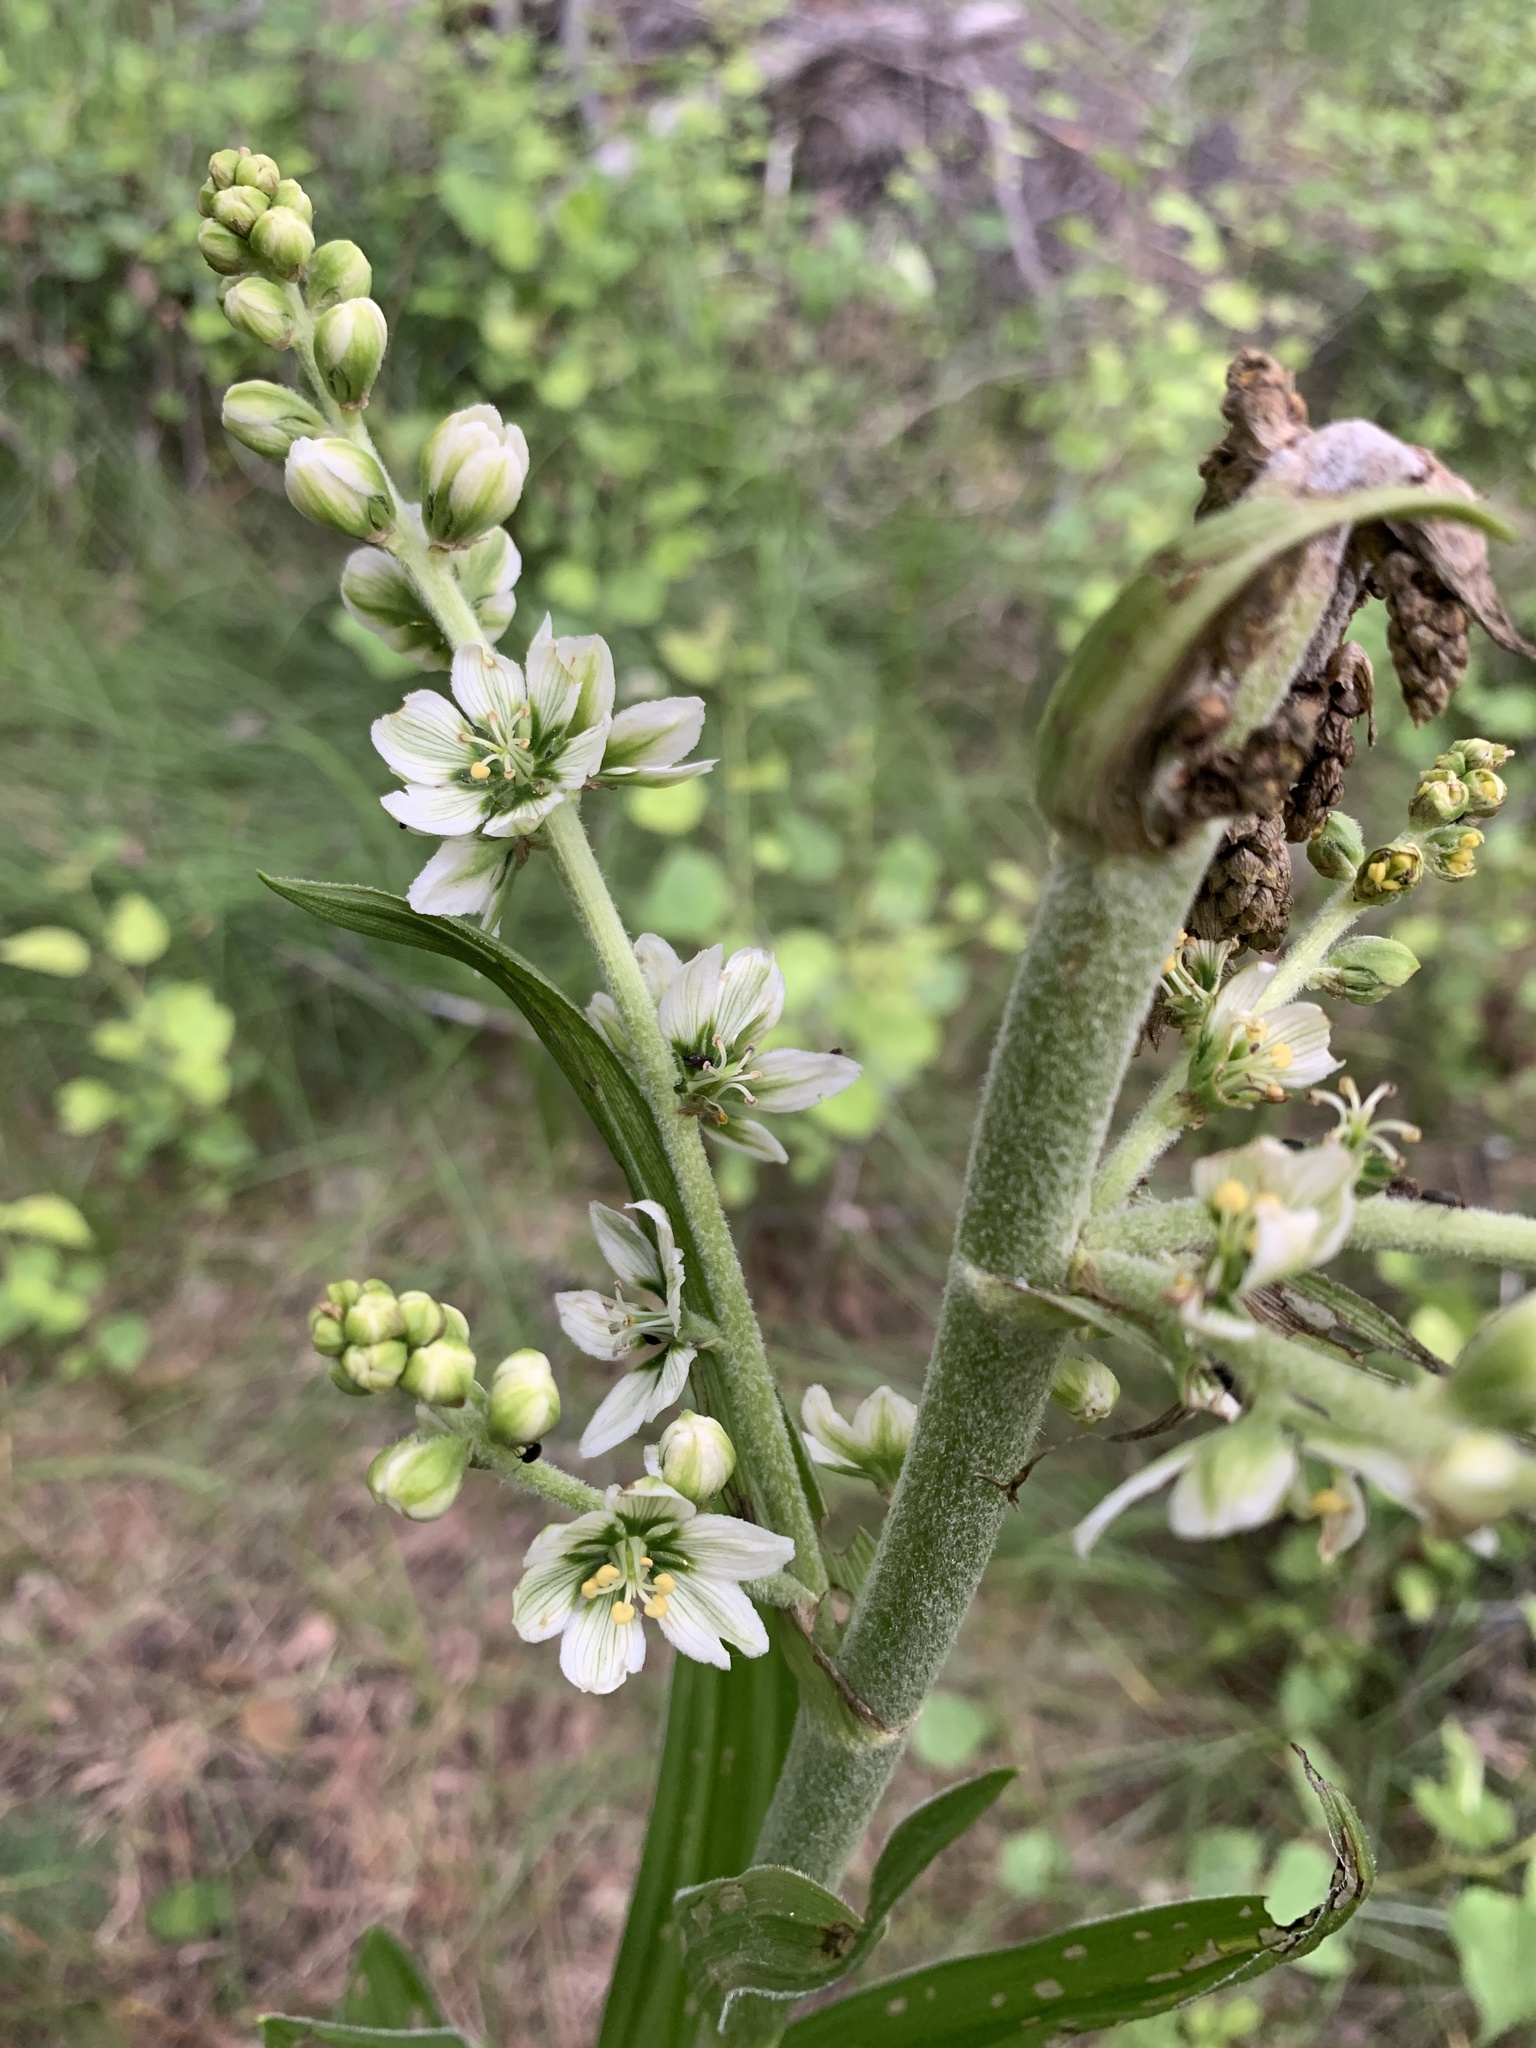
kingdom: Plantae
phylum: Tracheophyta
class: Liliopsida
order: Liliales
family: Melanthiaceae
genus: Veratrum
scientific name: Veratrum californicum
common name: California veratrum
